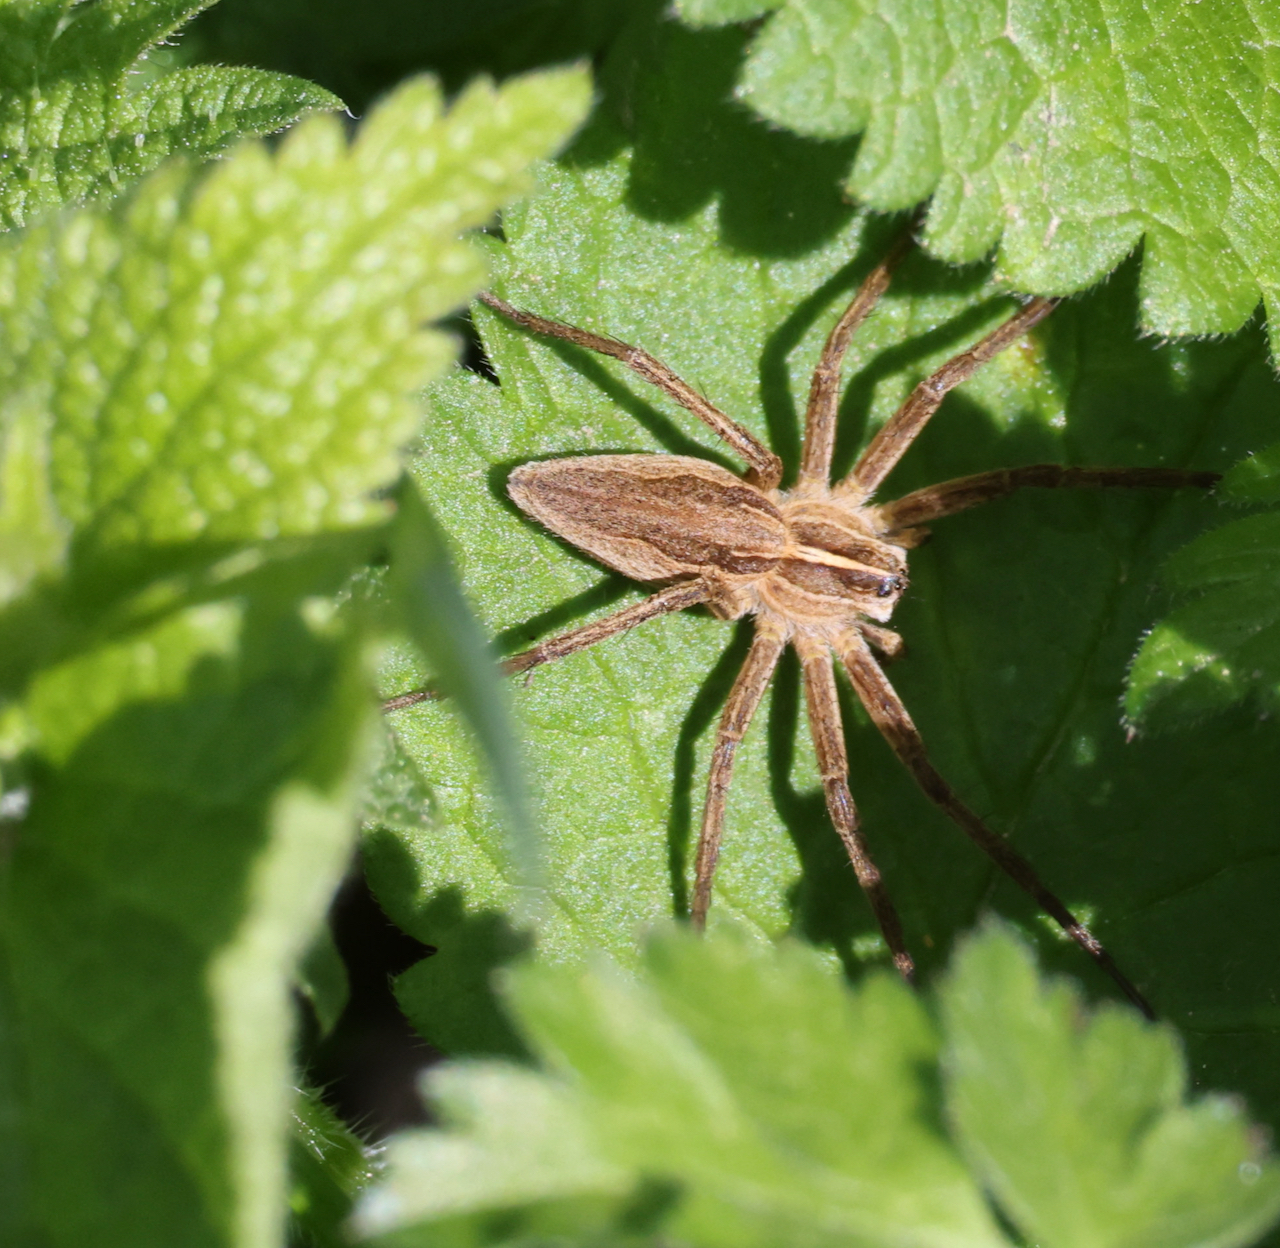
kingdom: Animalia
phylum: Arthropoda
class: Arachnida
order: Araneae
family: Pisauridae
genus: Pisaura
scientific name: Pisaura mirabilis
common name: Tent spider
